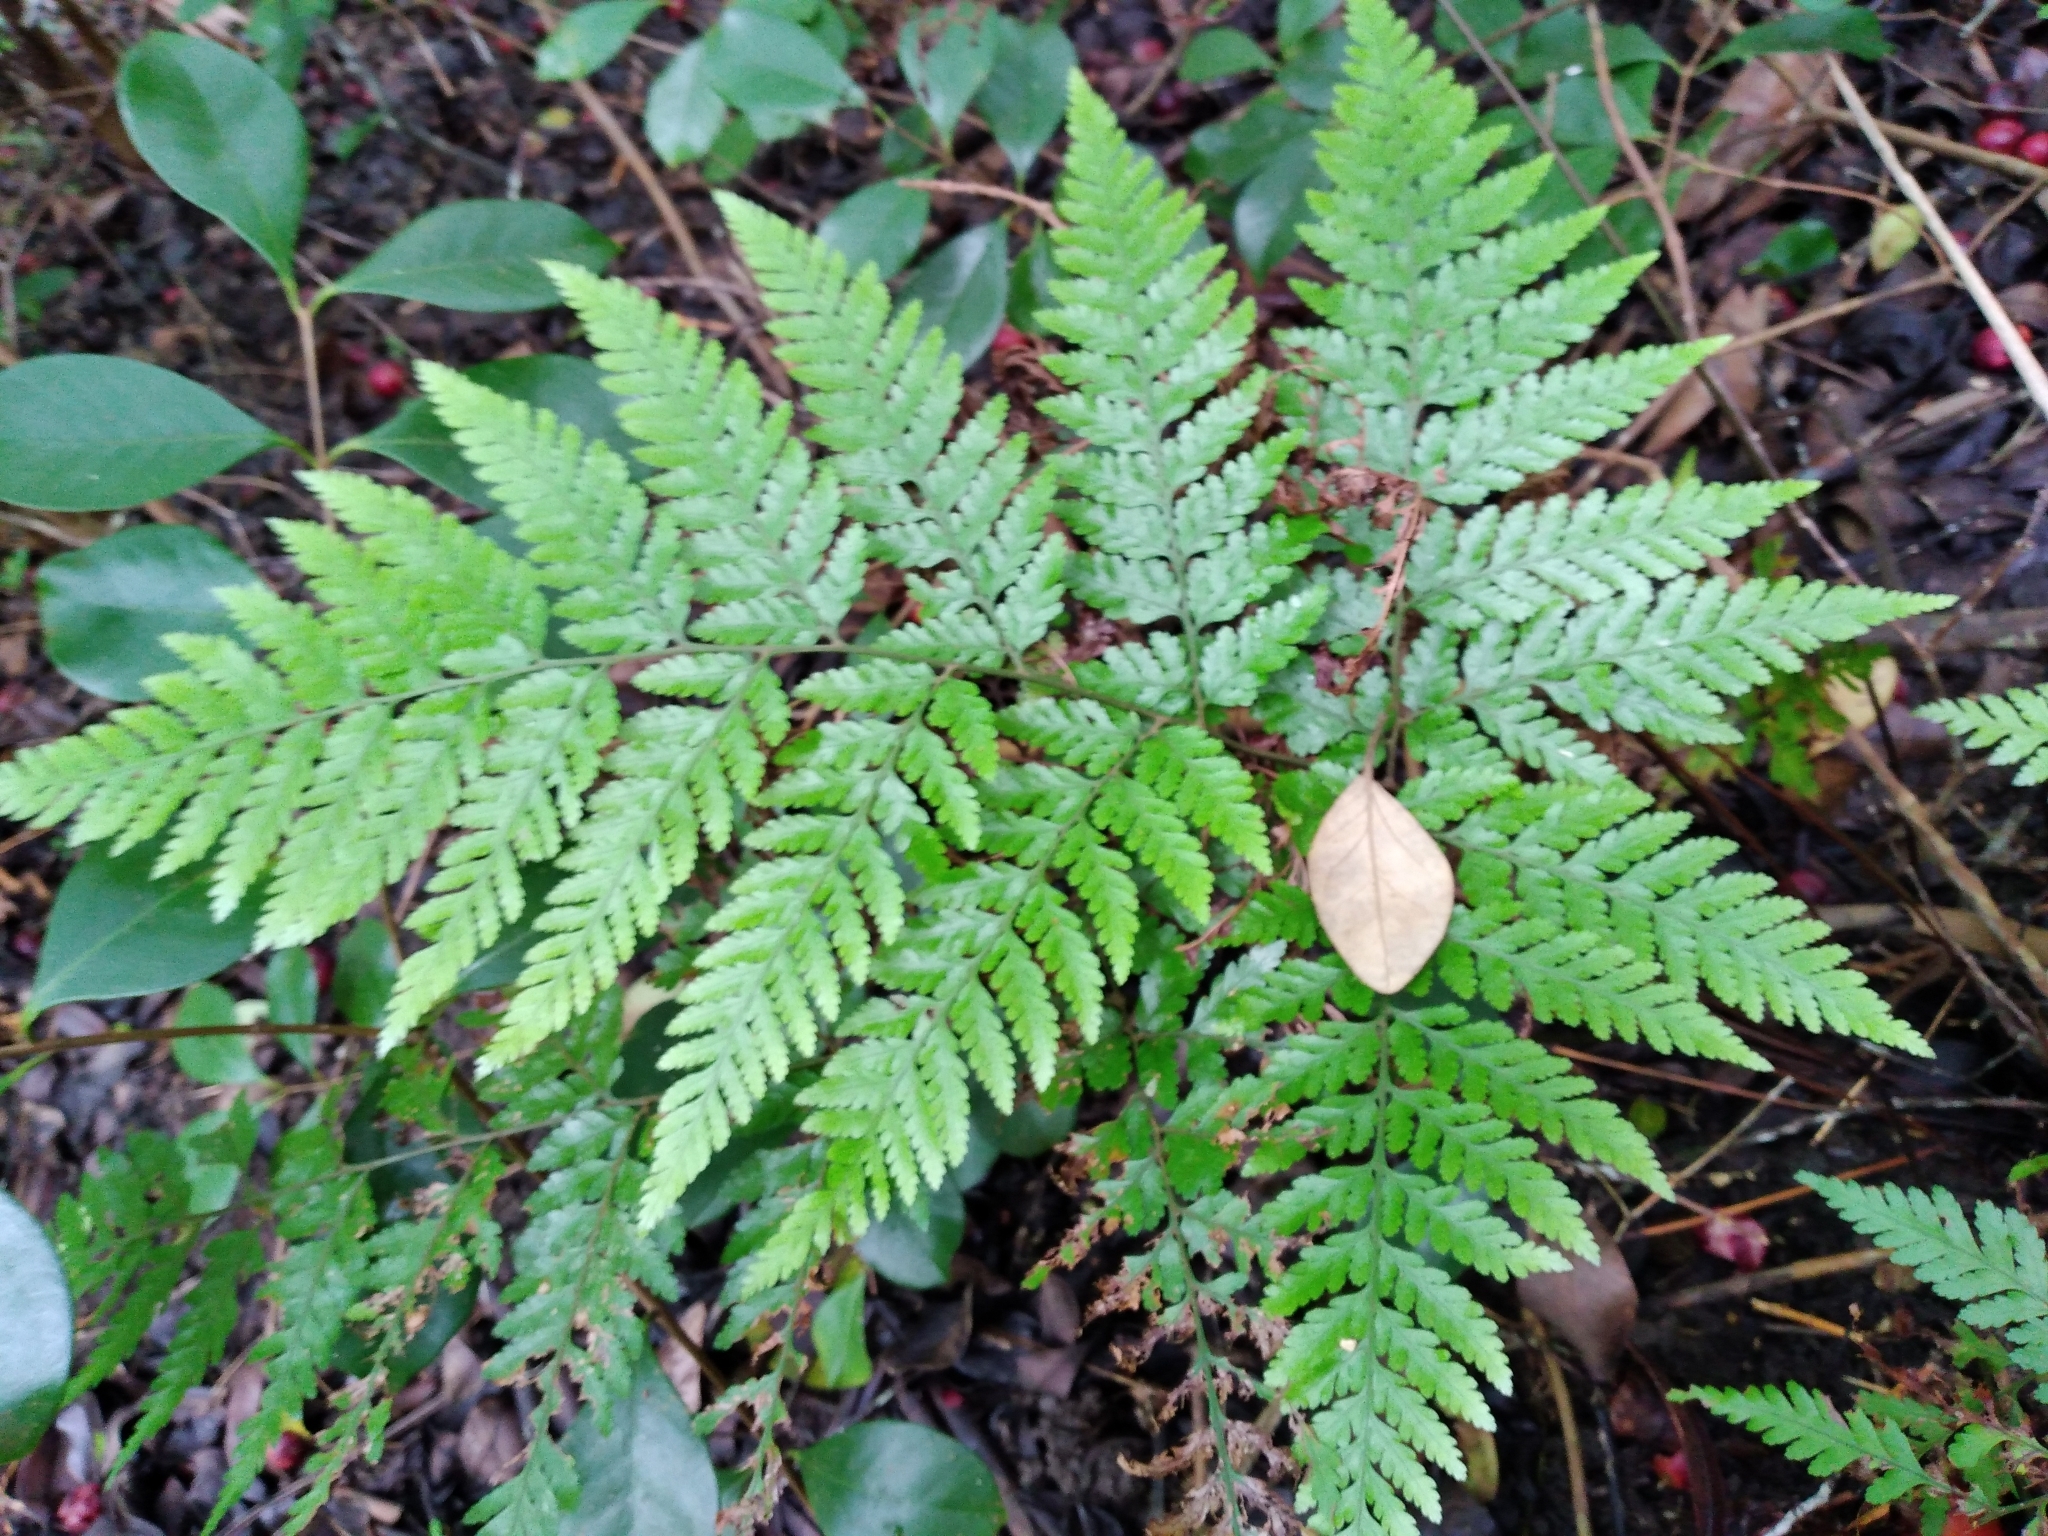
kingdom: Plantae
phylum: Tracheophyta
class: Polypodiopsida
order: Polypodiales
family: Dryopteridaceae
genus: Parapolystichum
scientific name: Parapolystichum calanthum
